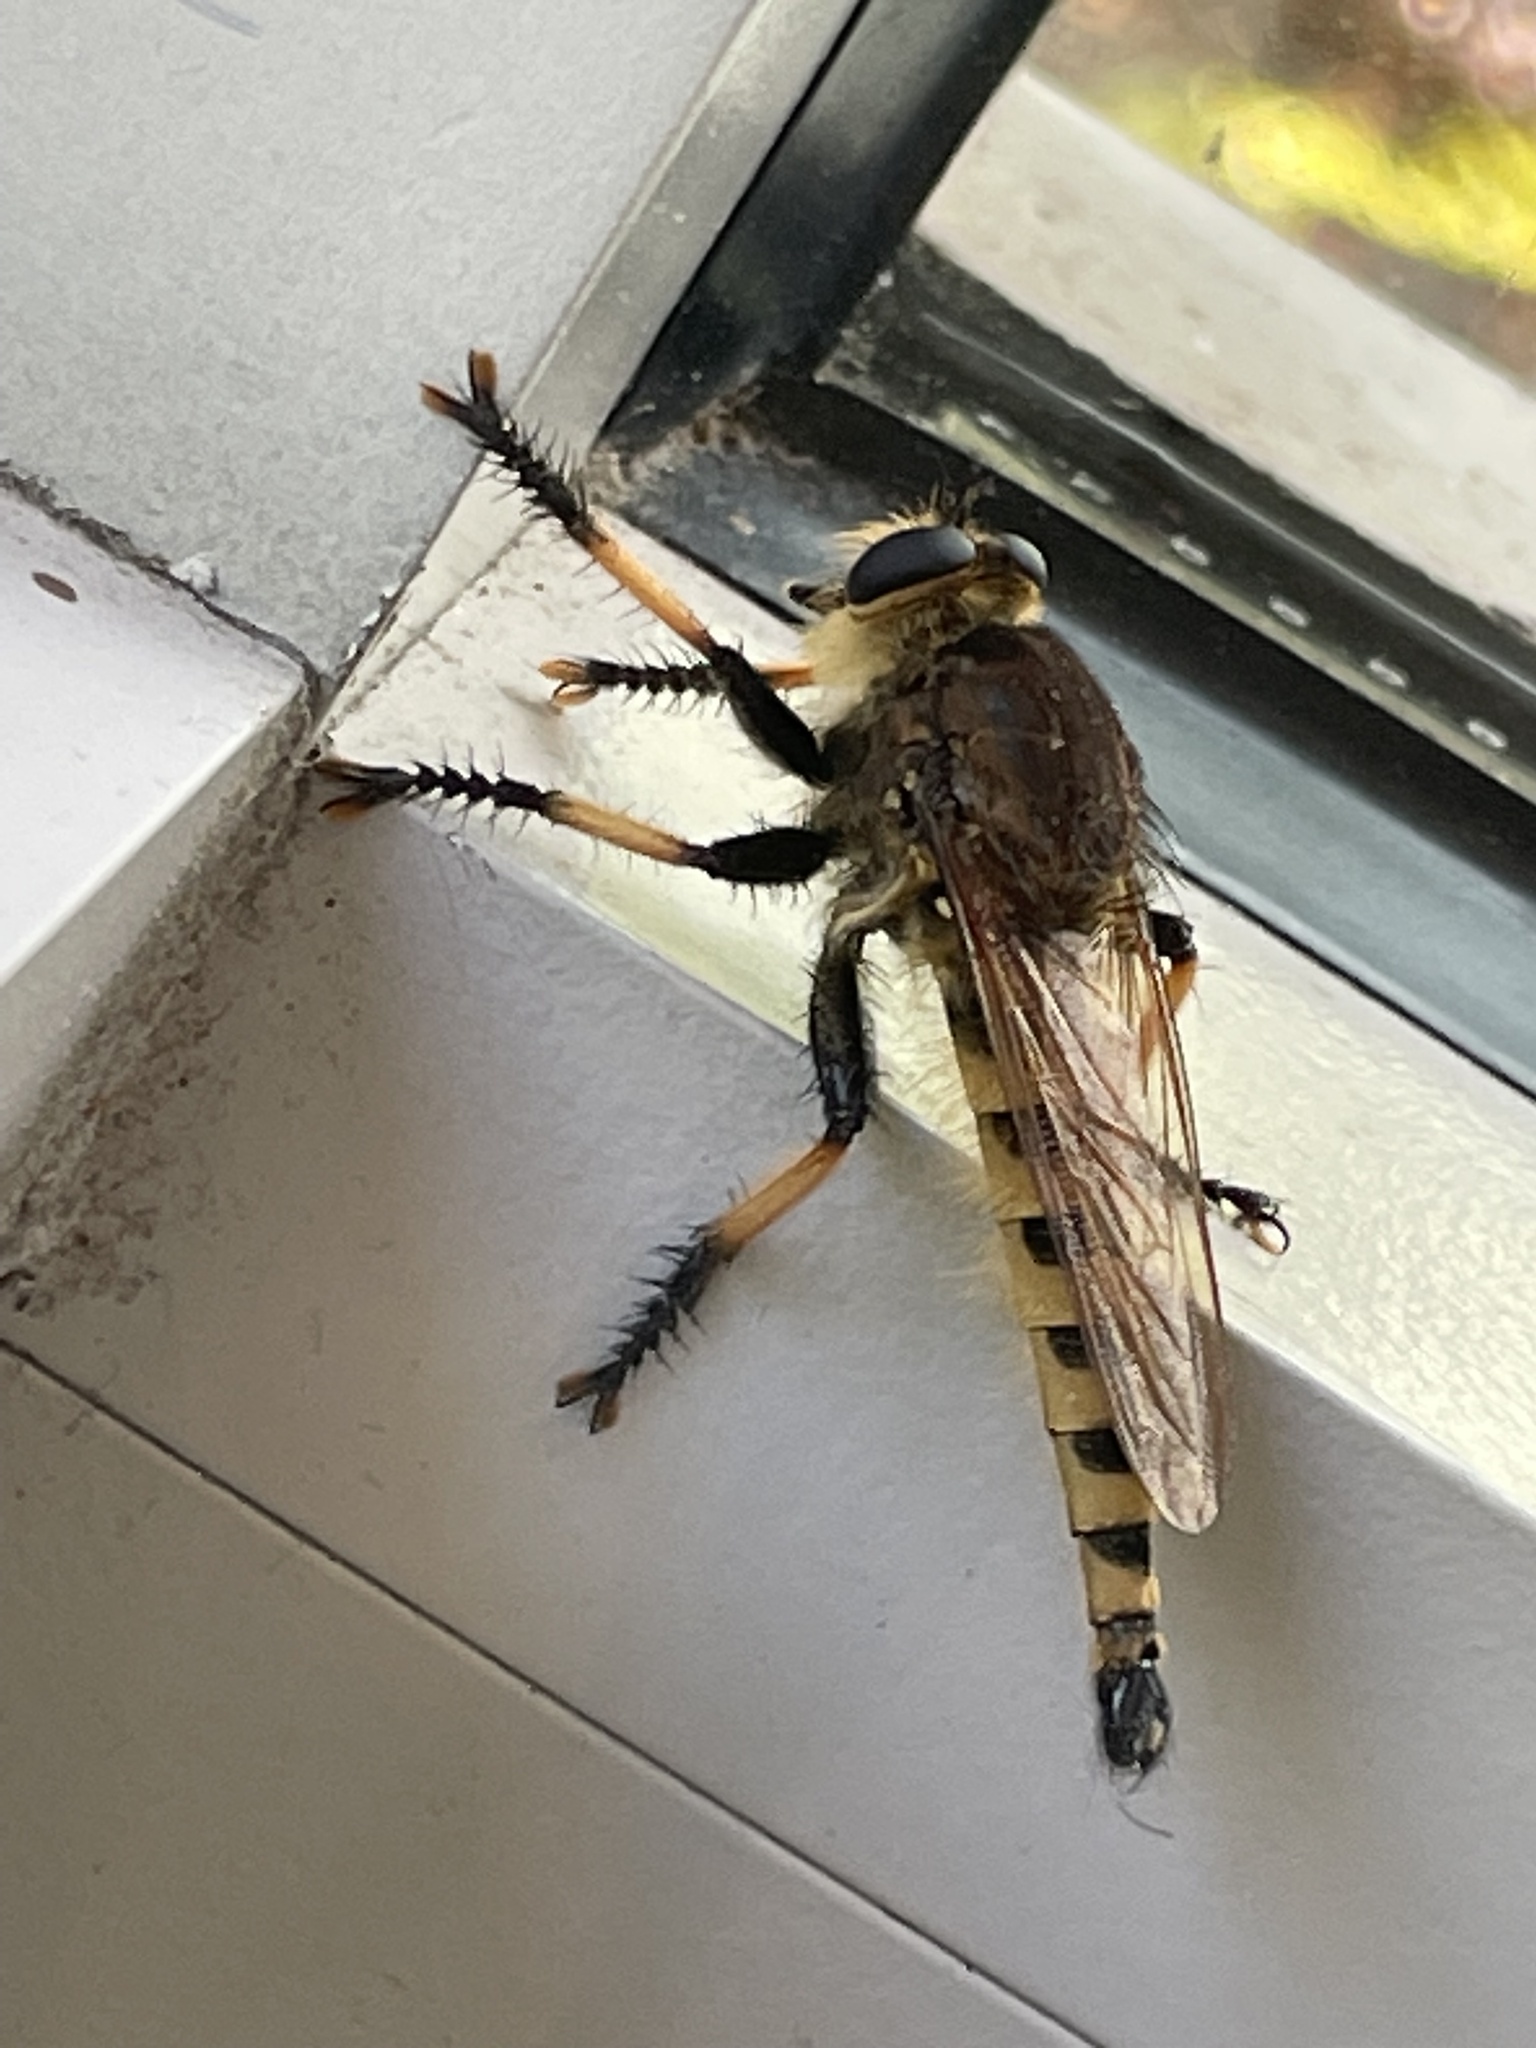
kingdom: Animalia
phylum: Arthropoda
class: Insecta
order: Diptera
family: Asilidae
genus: Promachus
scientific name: Promachus rufipes
